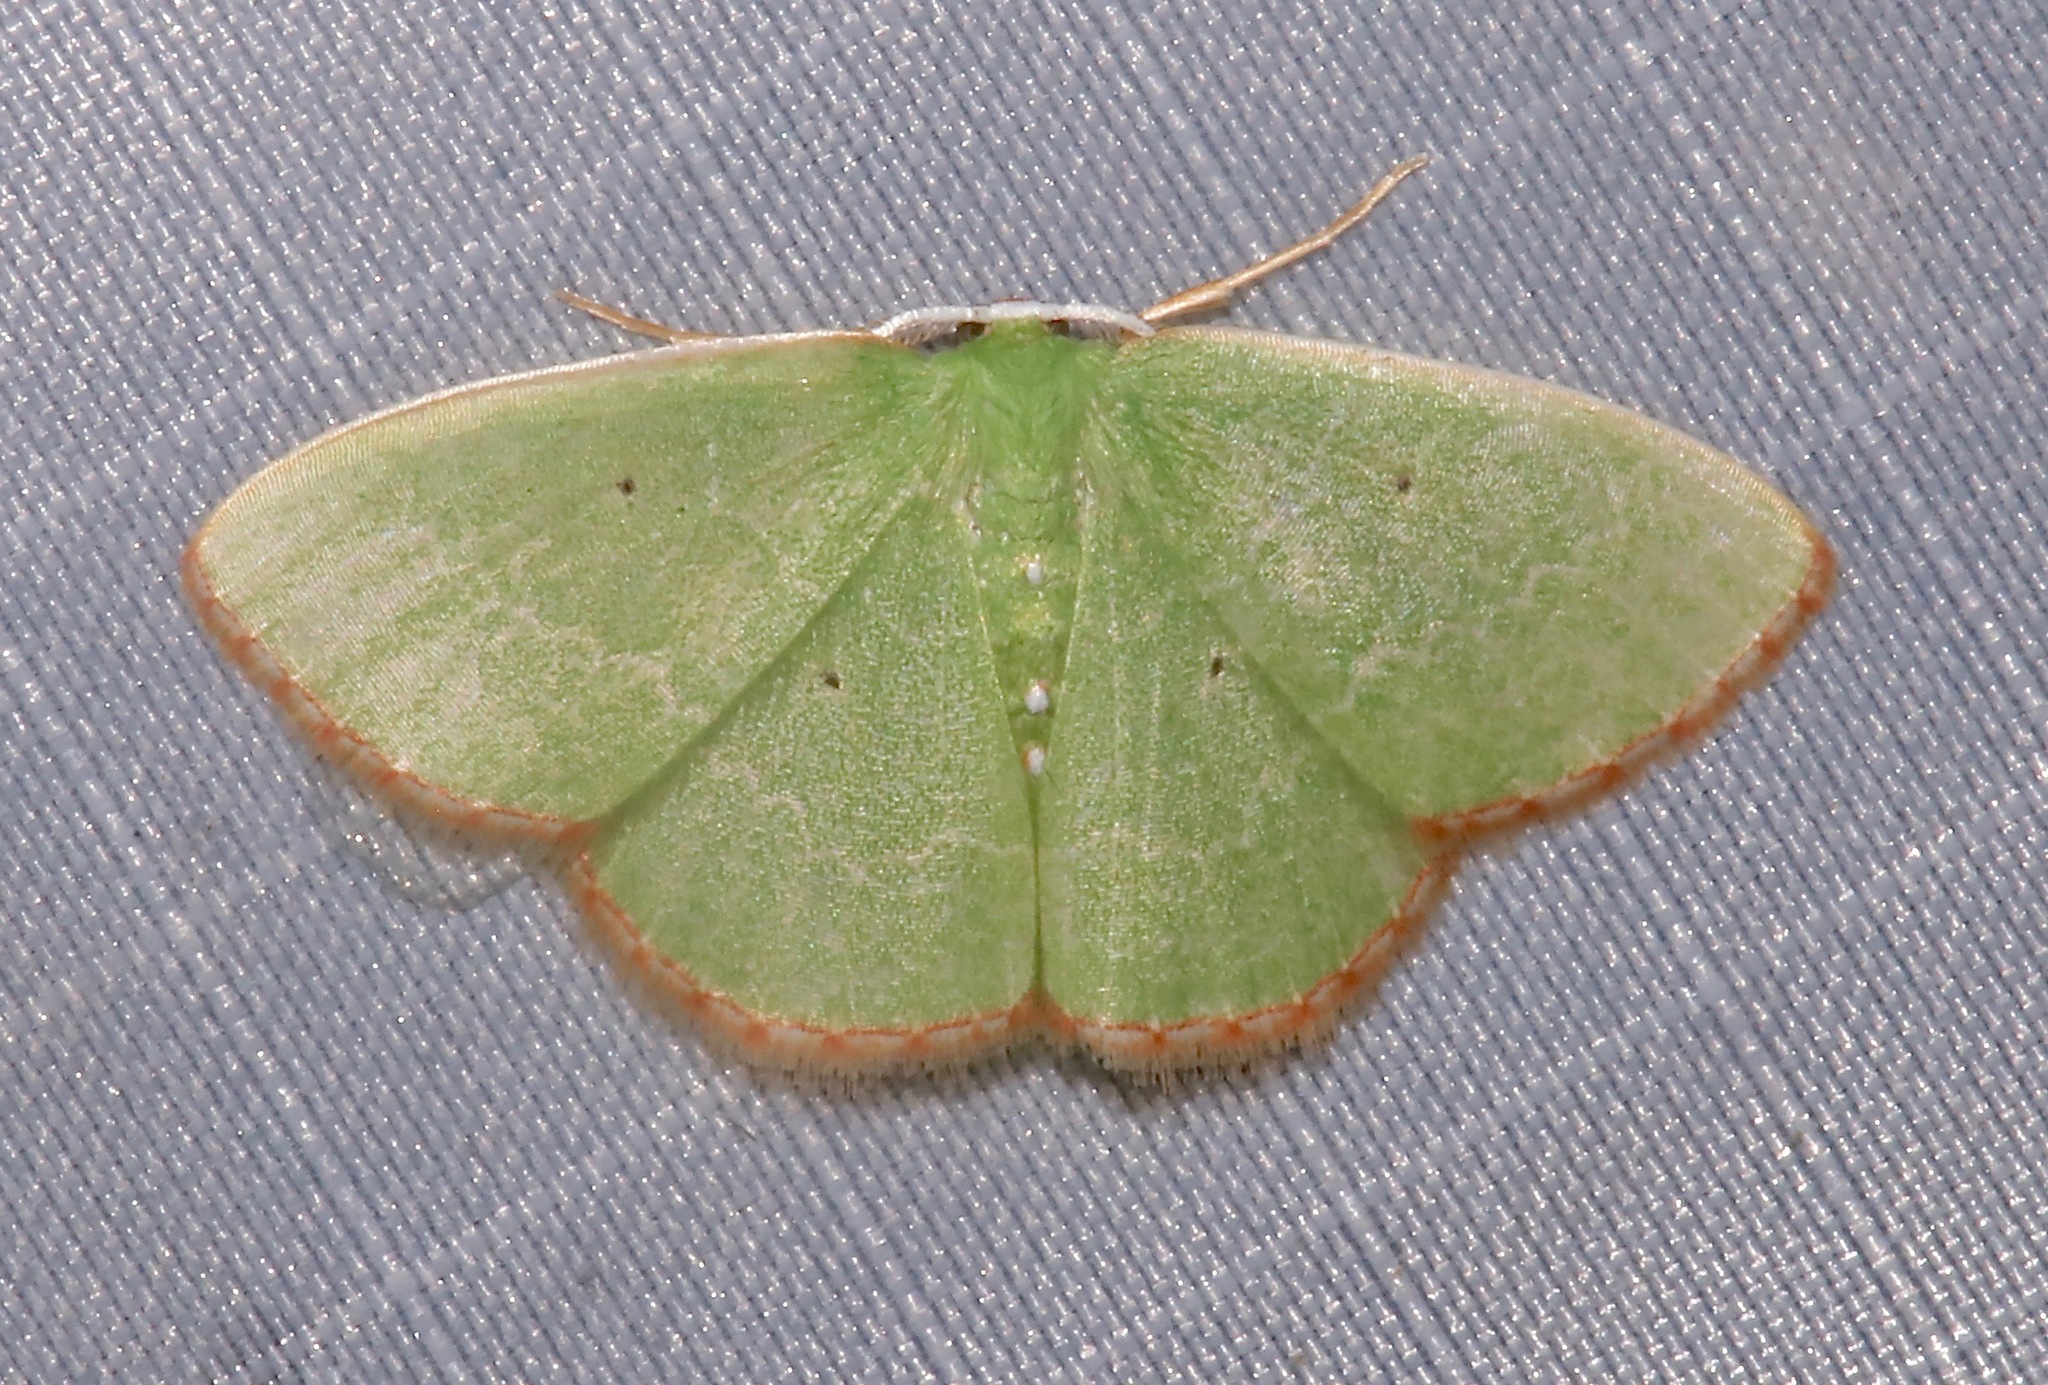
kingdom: Animalia
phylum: Arthropoda
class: Insecta
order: Lepidoptera
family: Geometridae
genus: Nemoria
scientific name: Nemoria catachloa
